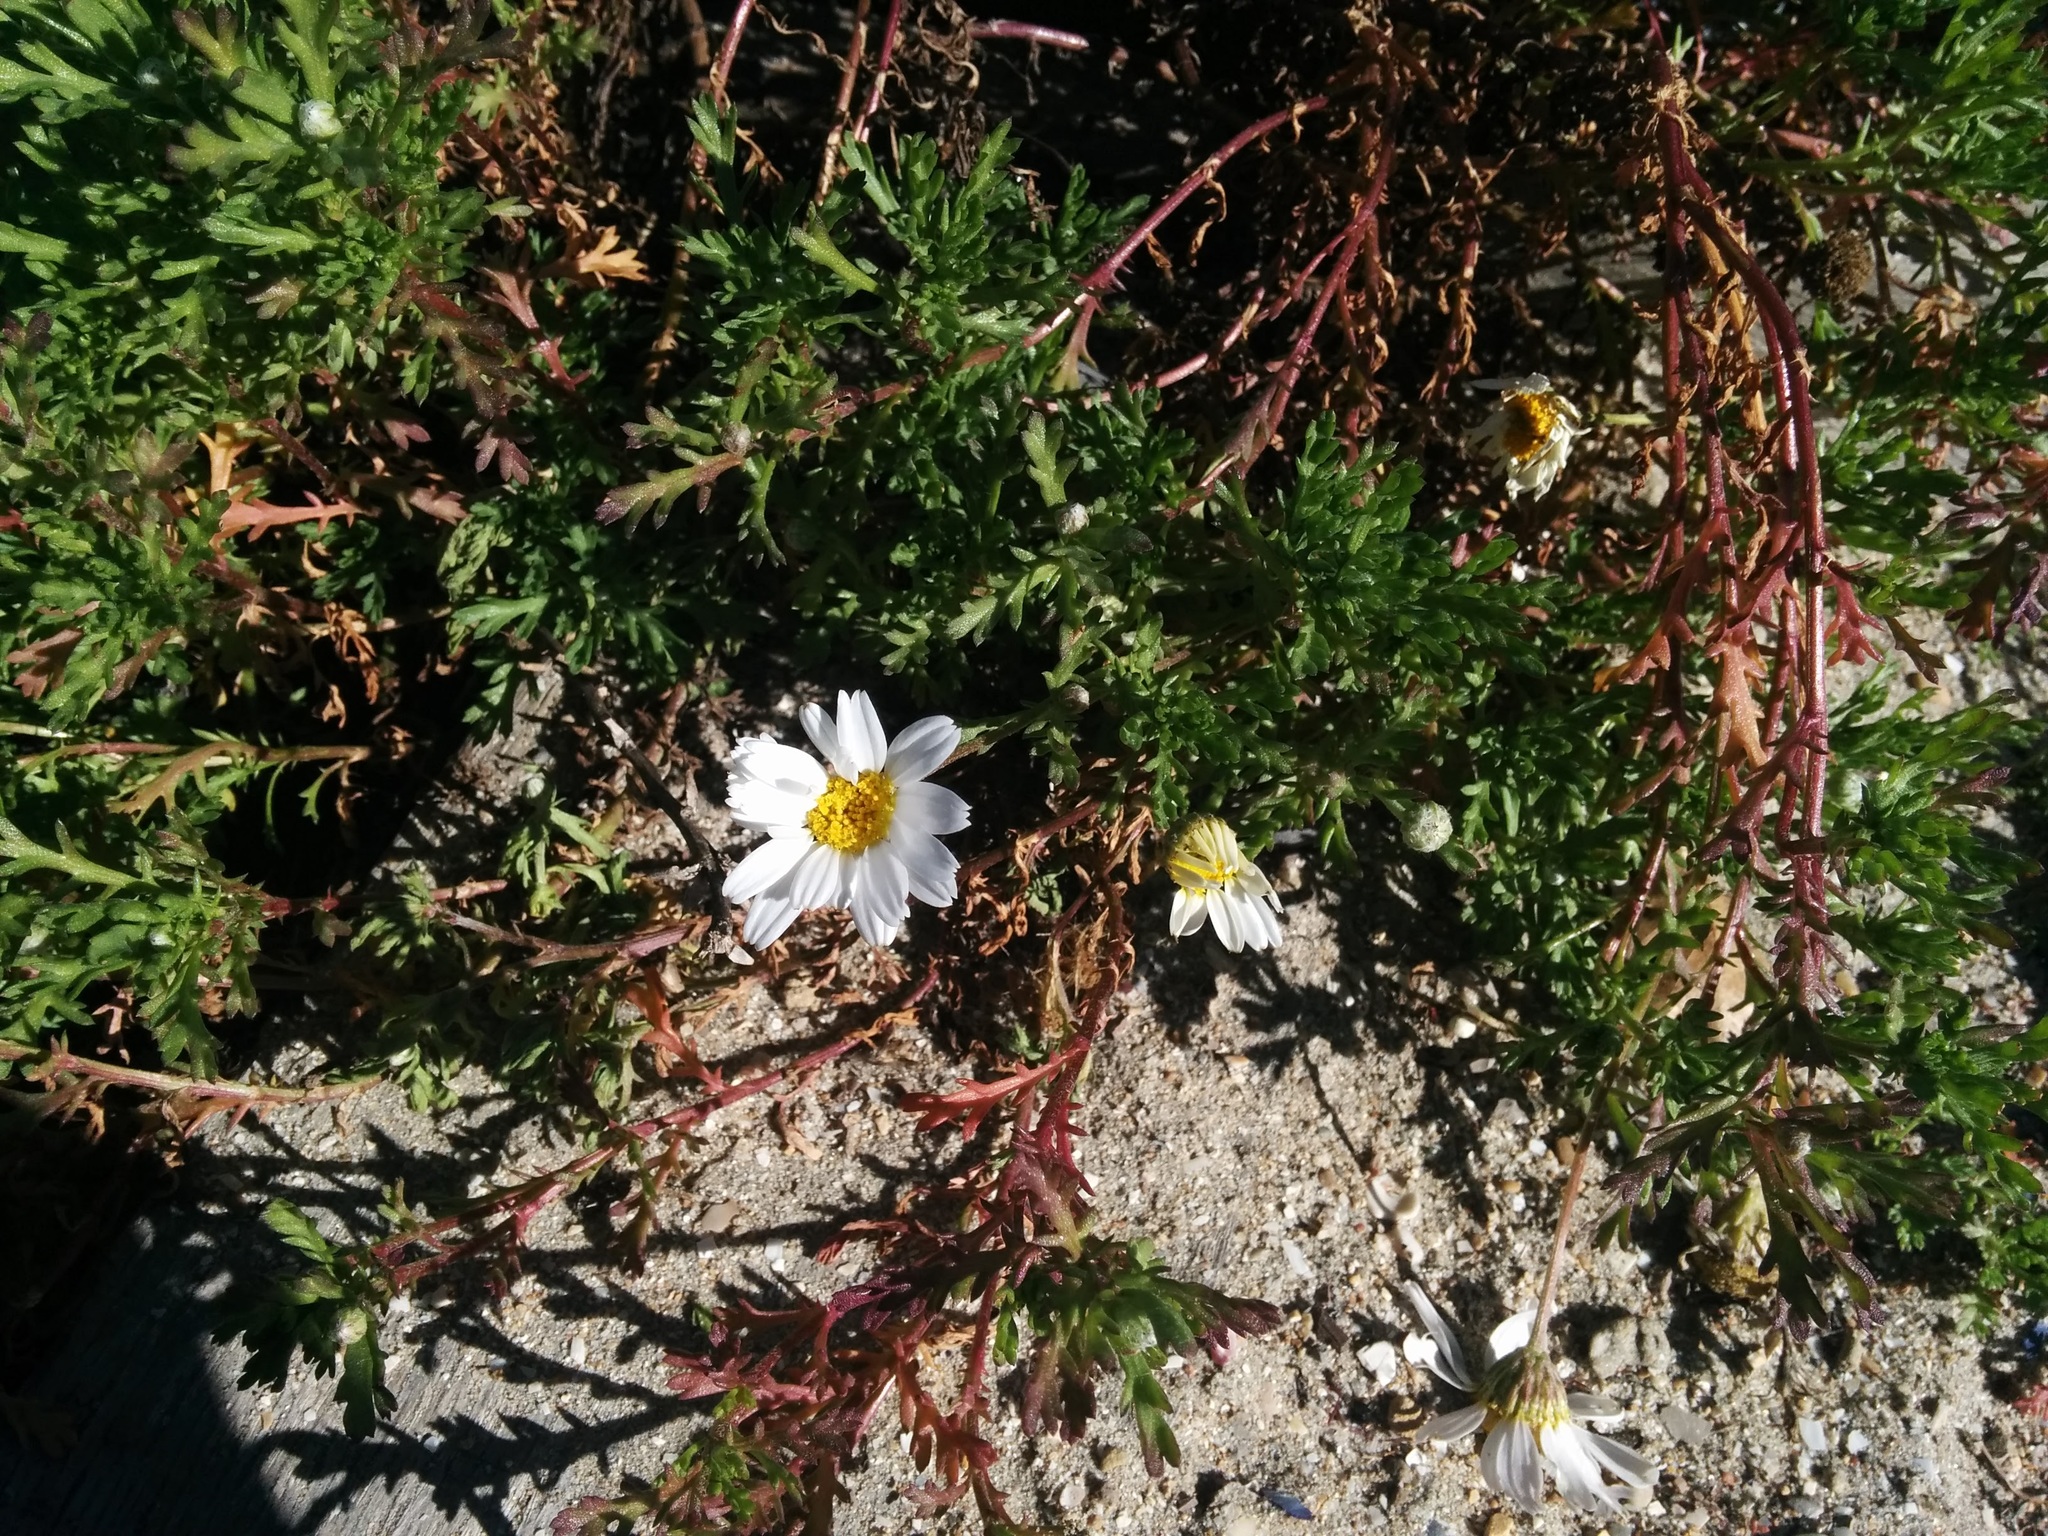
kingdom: Plantae
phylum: Tracheophyta
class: Magnoliopsida
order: Asterales
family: Asteraceae
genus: Anthemis
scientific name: Anthemis maritima
